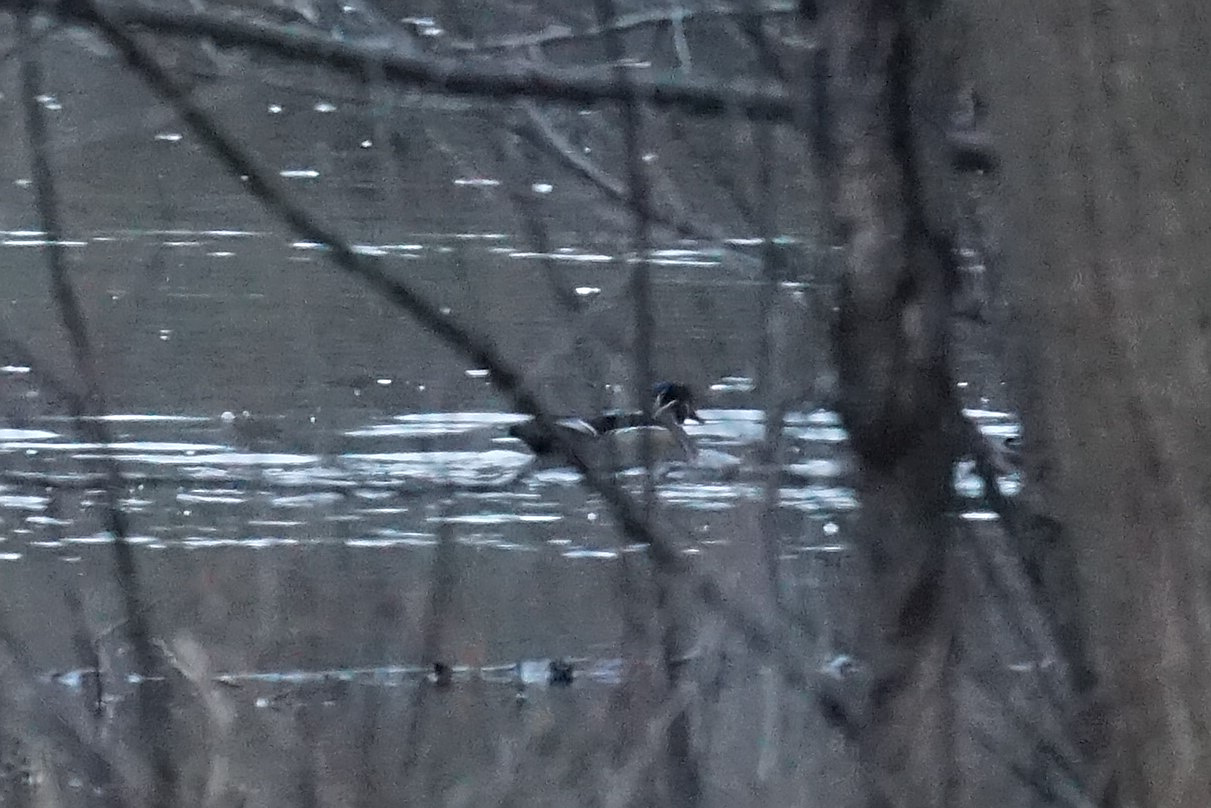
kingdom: Animalia
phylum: Chordata
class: Aves
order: Anseriformes
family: Anatidae
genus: Aix
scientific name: Aix sponsa
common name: Wood duck
